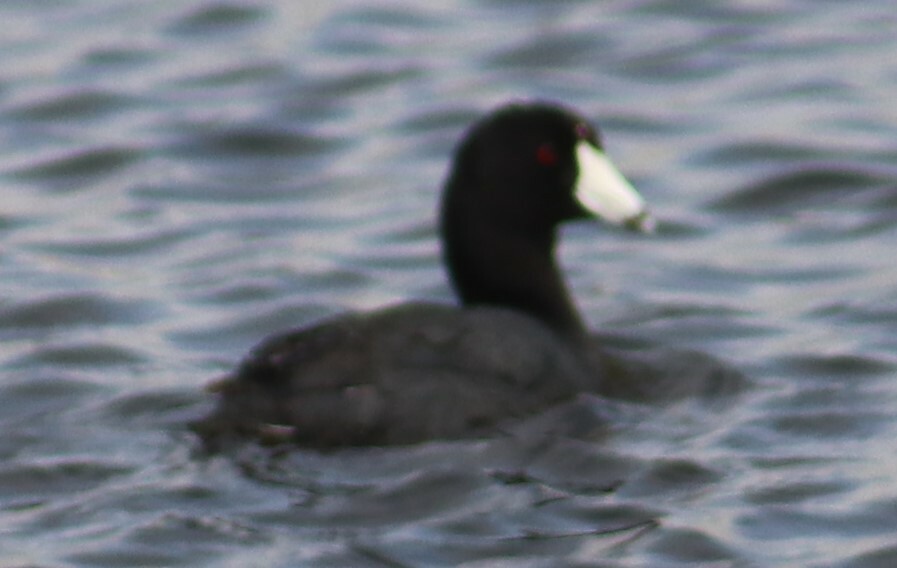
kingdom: Animalia
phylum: Chordata
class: Aves
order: Gruiformes
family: Rallidae
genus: Fulica
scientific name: Fulica americana
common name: American coot
